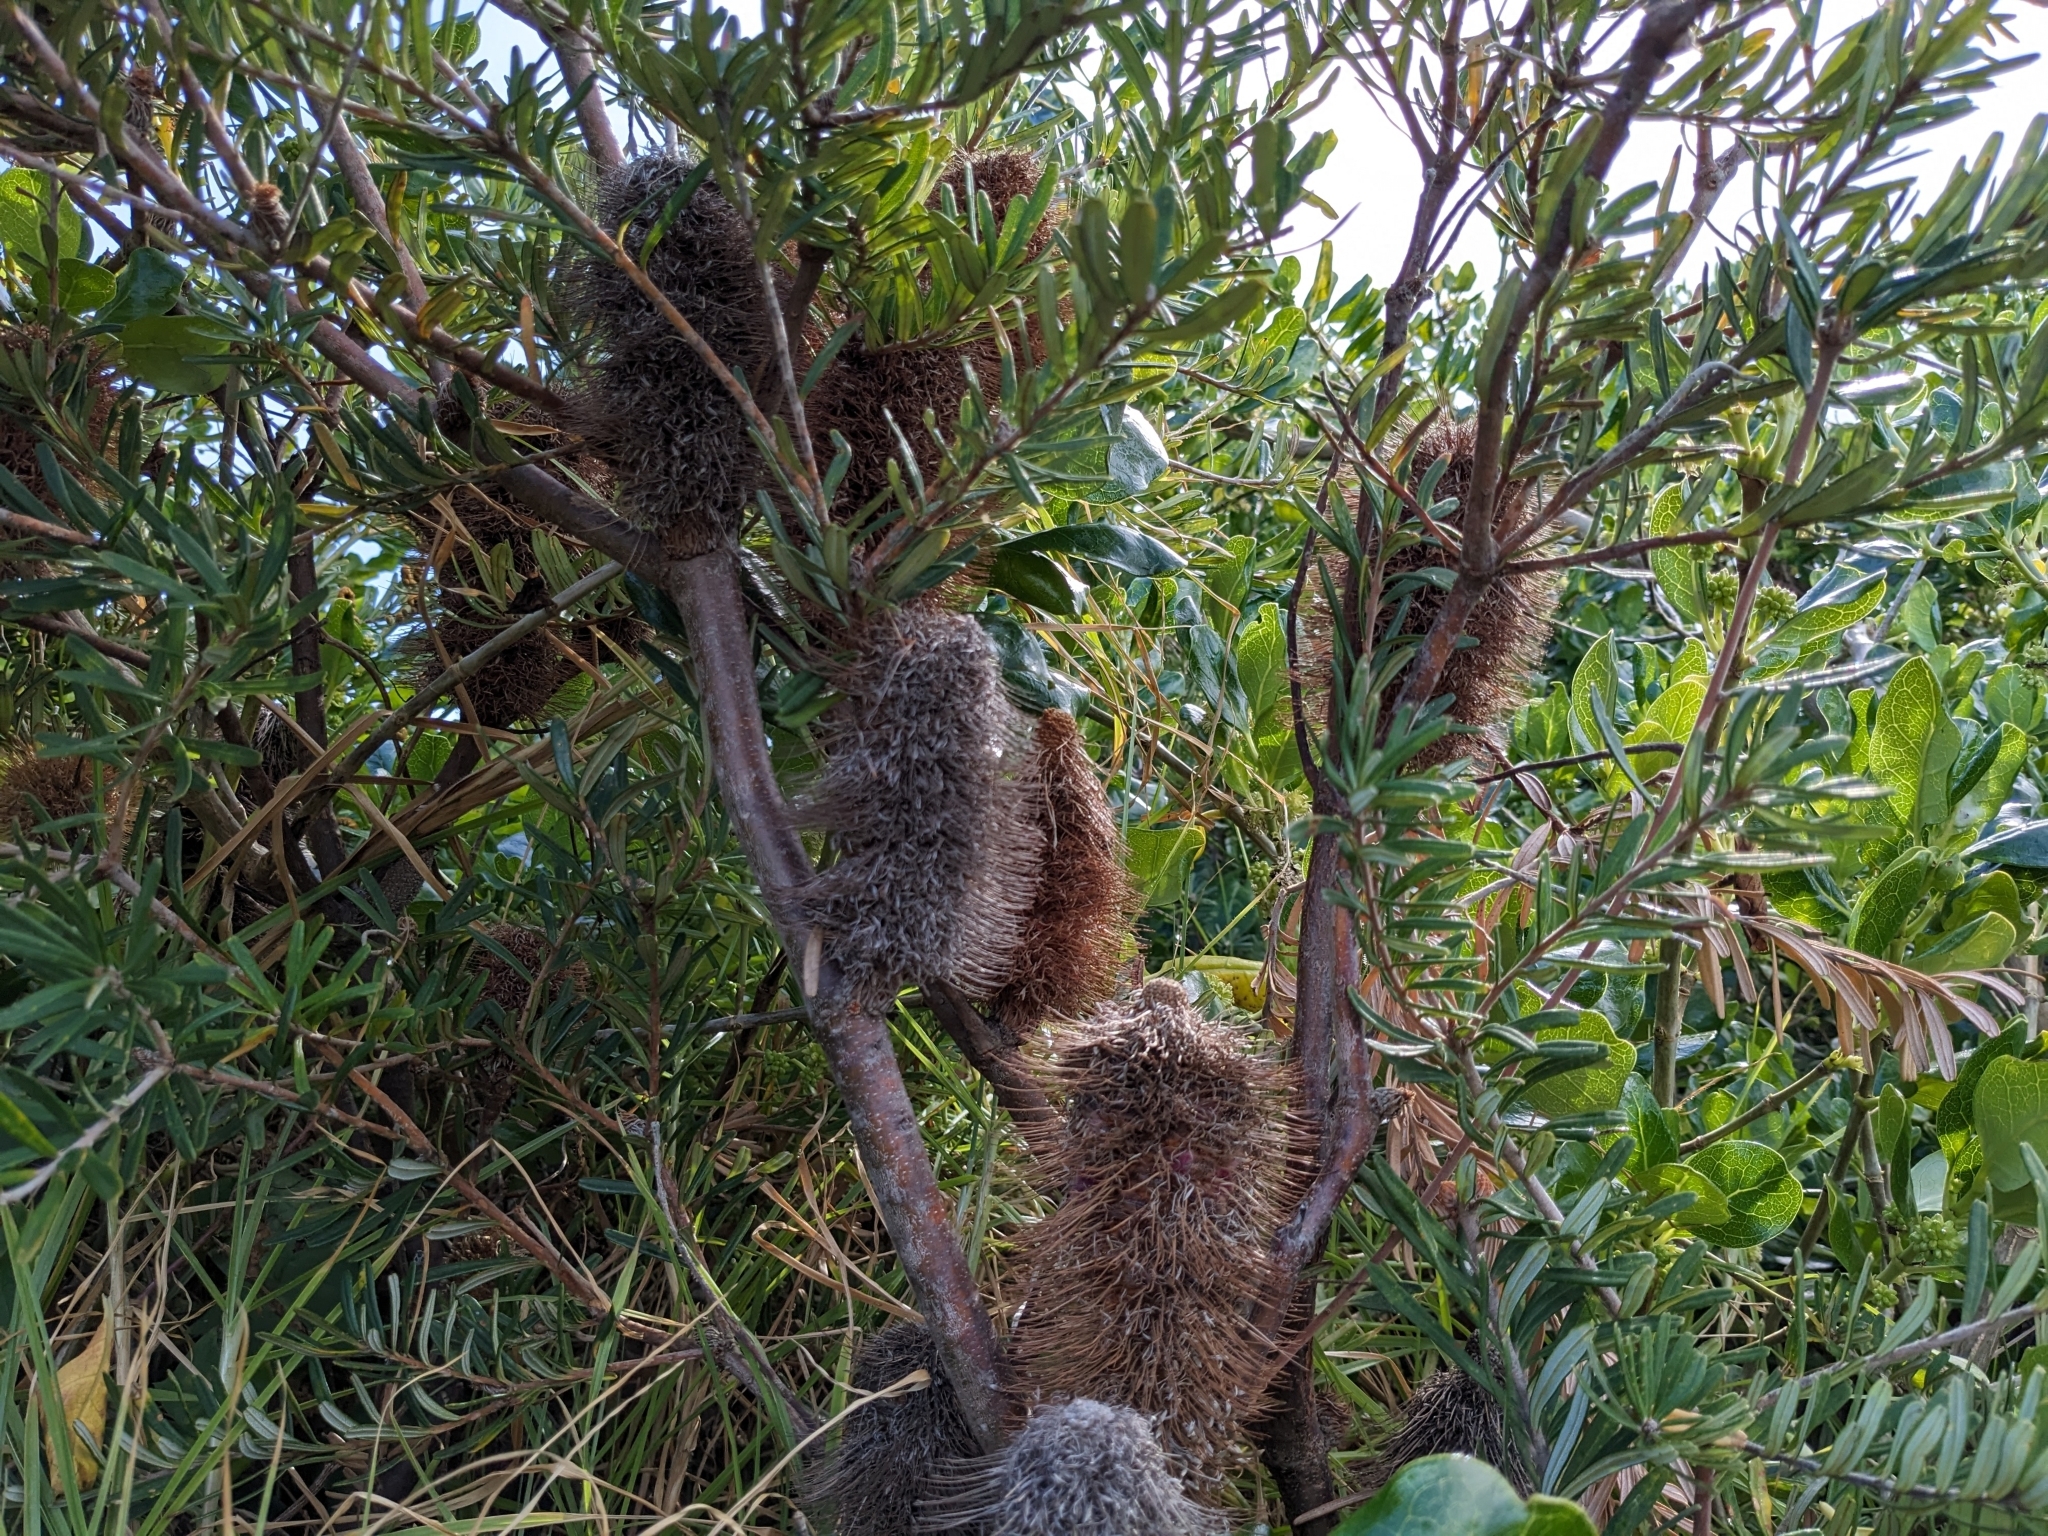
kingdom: Plantae
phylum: Tracheophyta
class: Magnoliopsida
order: Proteales
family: Proteaceae
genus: Banksia
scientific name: Banksia marginata
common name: Silver banksia
